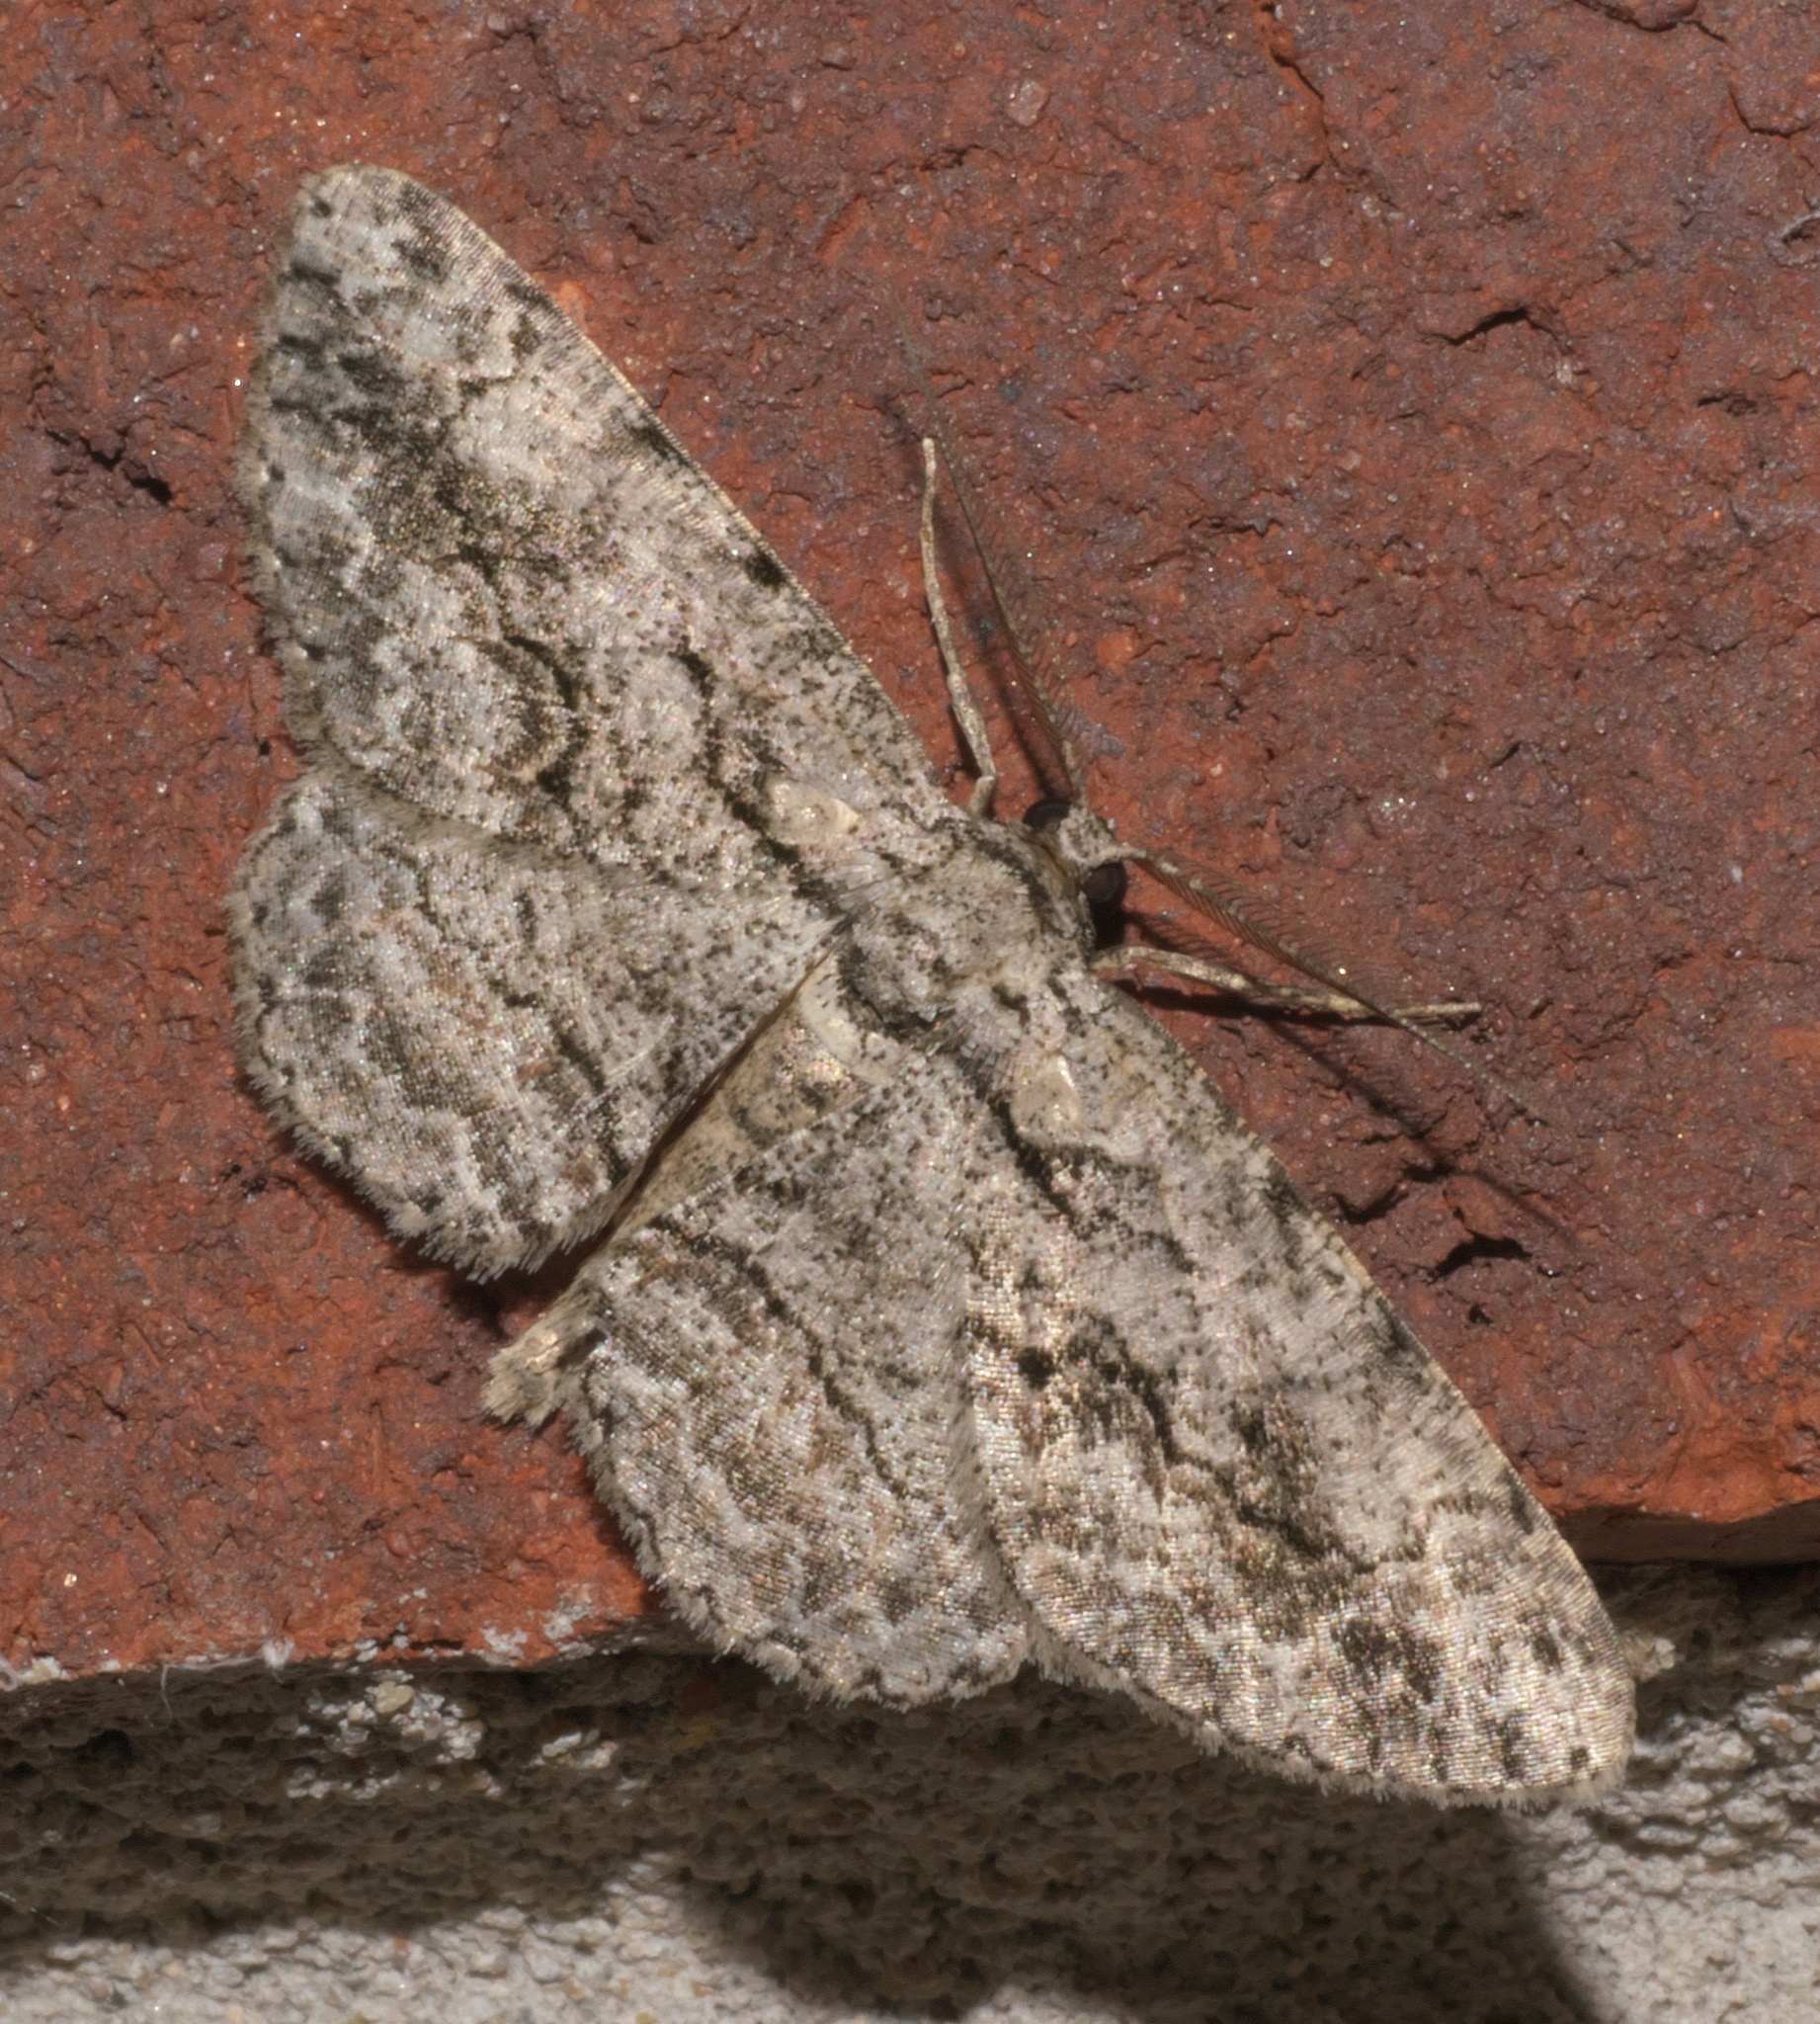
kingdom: Animalia
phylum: Arthropoda
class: Insecta
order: Lepidoptera
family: Geometridae
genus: Anavitrinella
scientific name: Anavitrinella pampinaria
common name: Common gray
